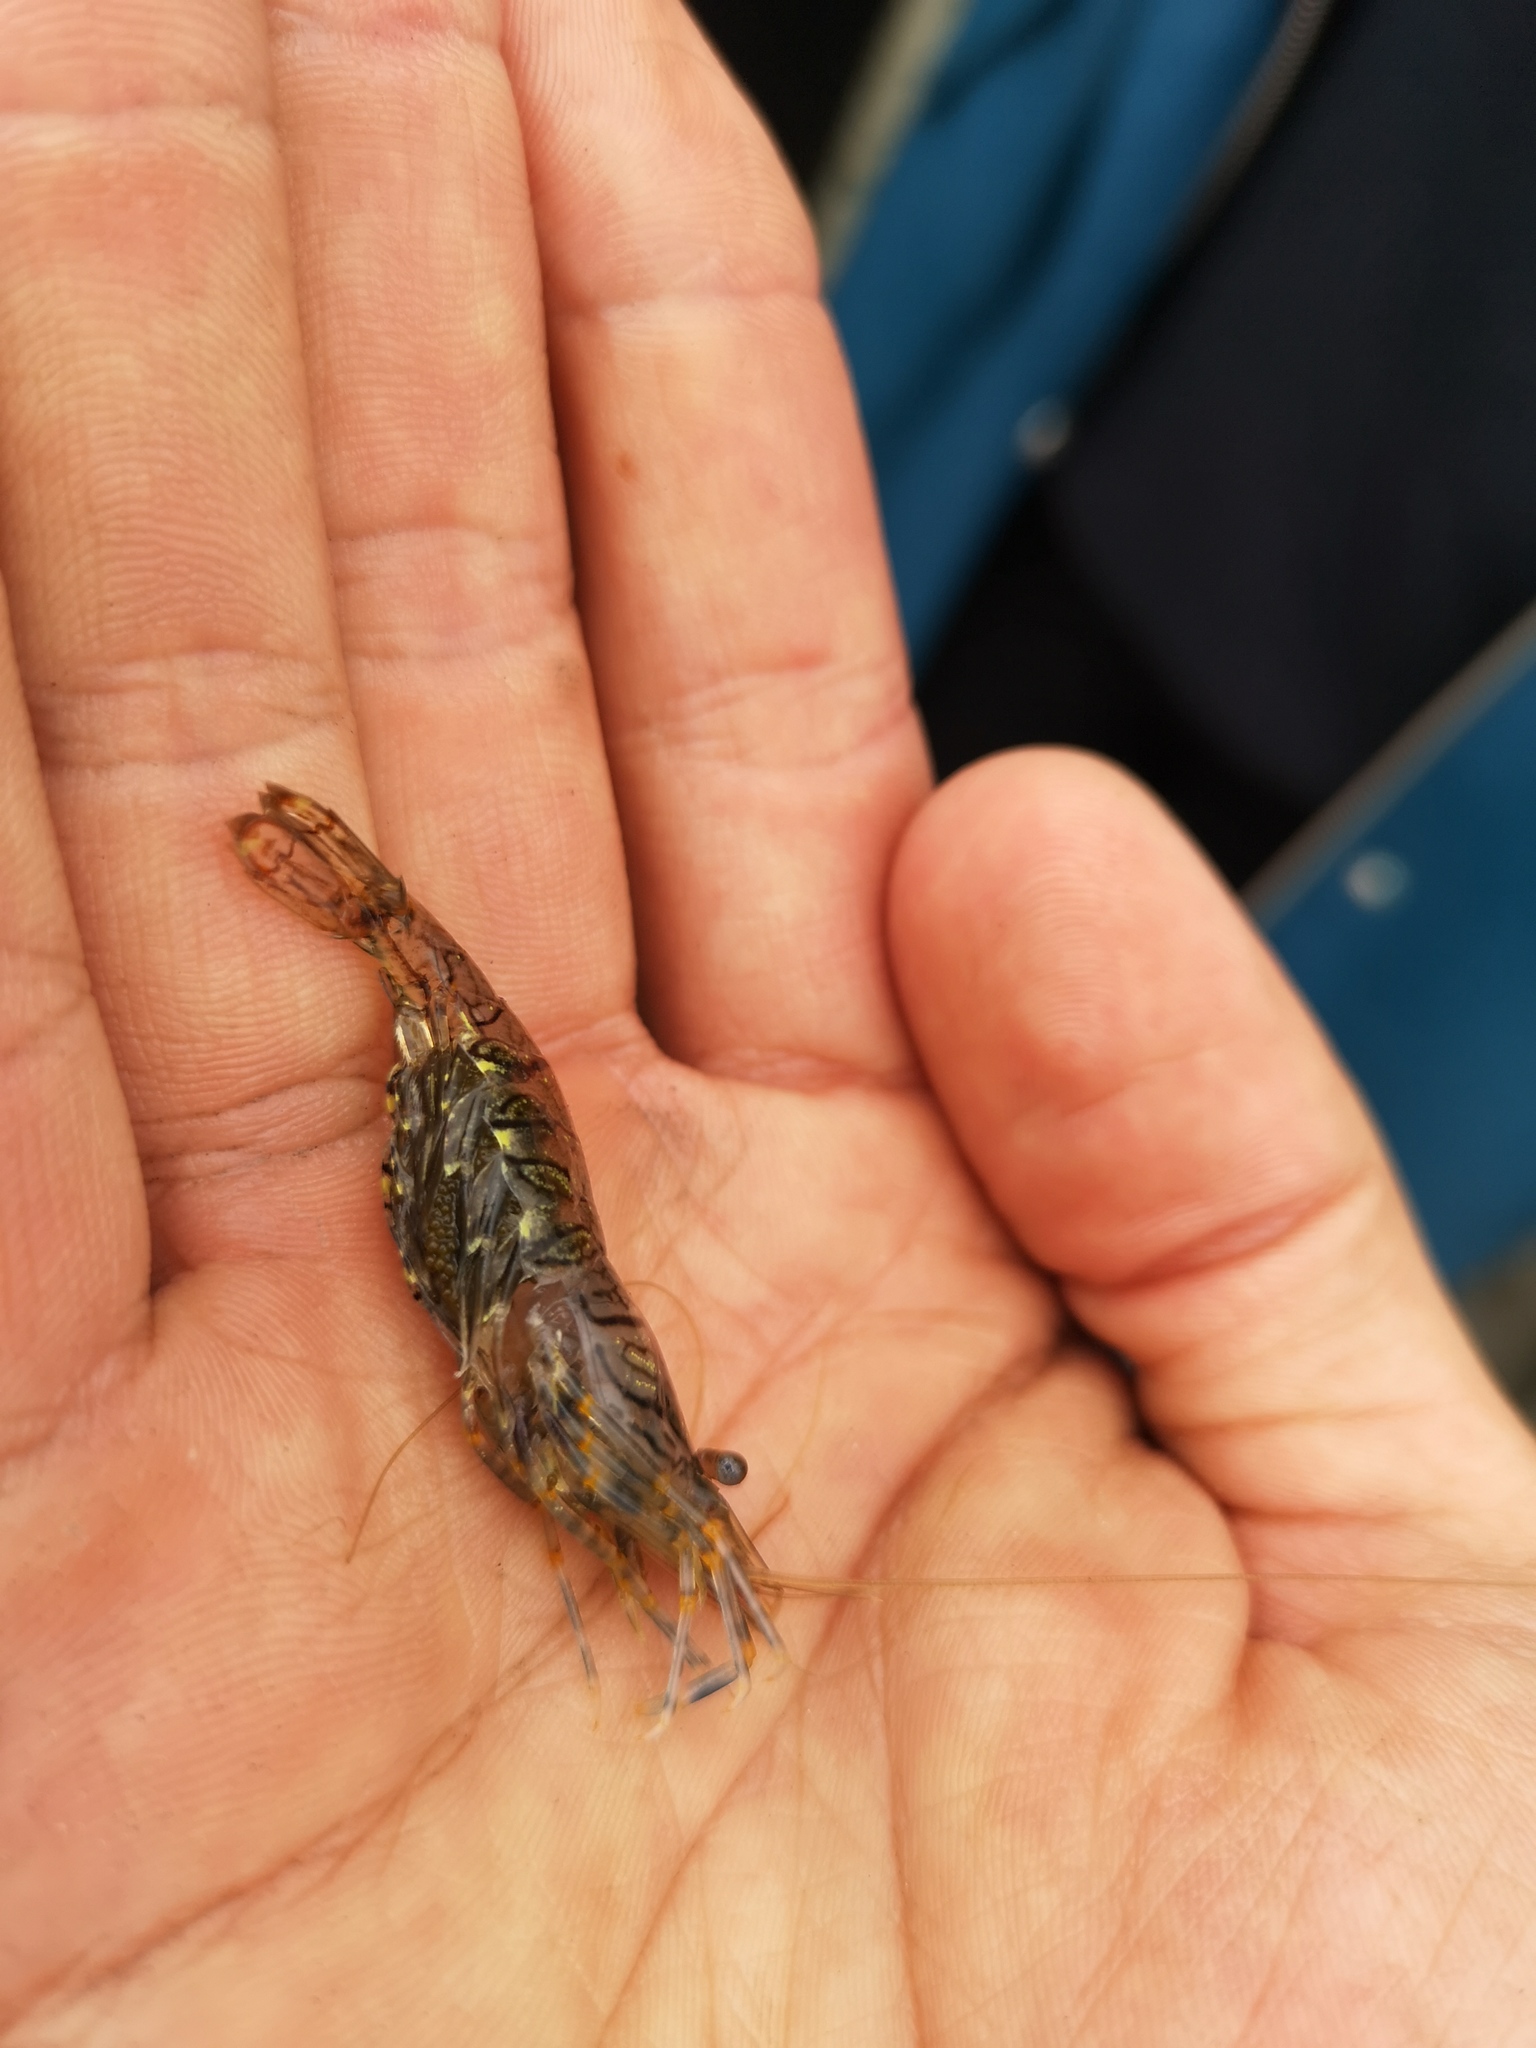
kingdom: Animalia
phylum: Arthropoda
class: Malacostraca
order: Decapoda
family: Palaemonidae
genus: Palaemon
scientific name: Palaemon elegans
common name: Grass prawm
